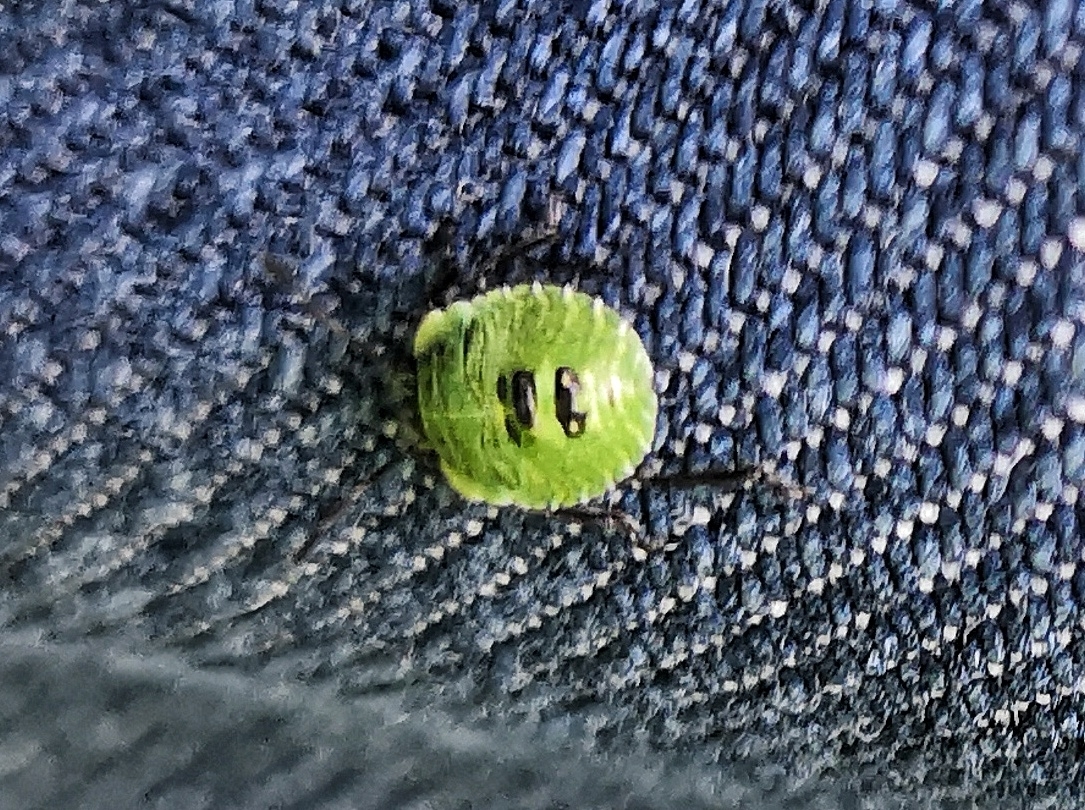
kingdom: Animalia
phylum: Arthropoda
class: Insecta
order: Hemiptera
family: Pentatomidae
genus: Palomena
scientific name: Palomena prasina
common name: Green shieldbug
